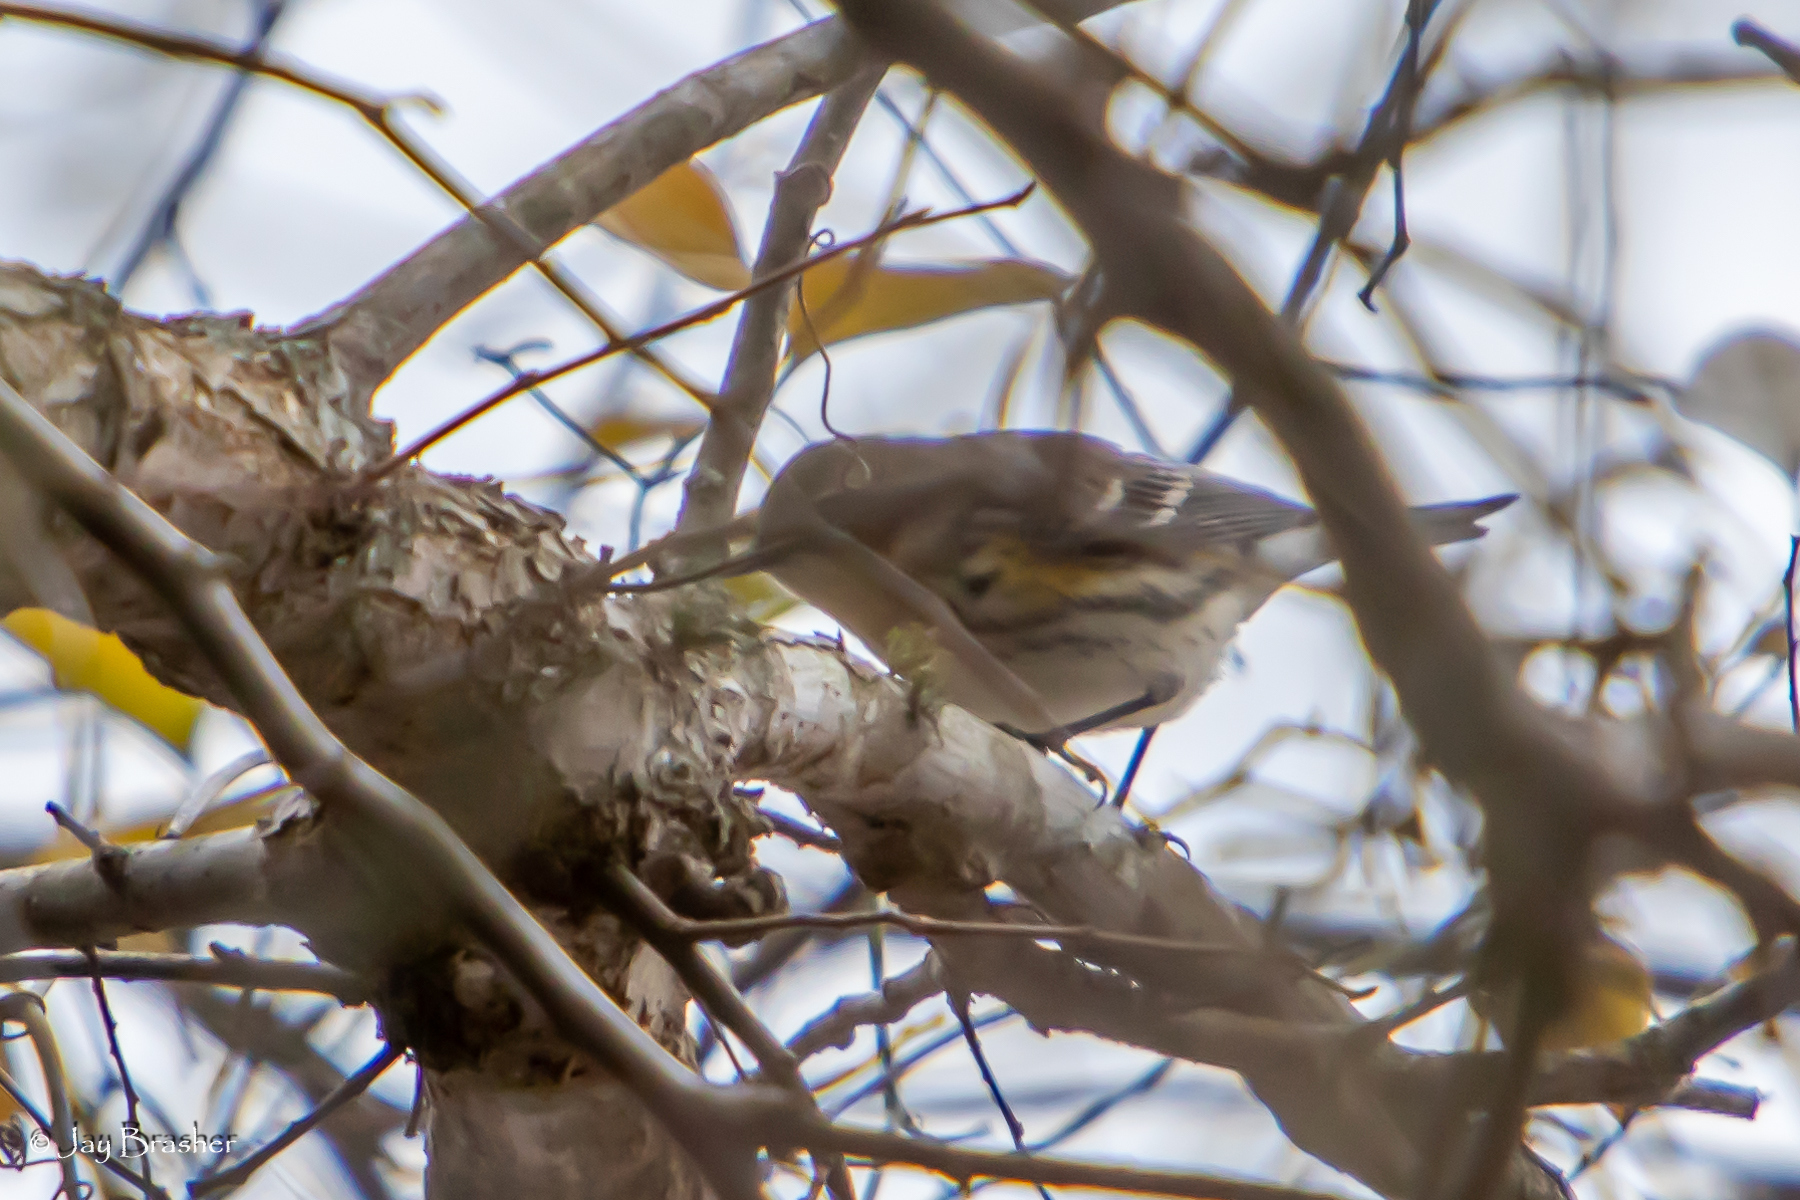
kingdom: Animalia
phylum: Chordata
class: Aves
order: Passeriformes
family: Parulidae
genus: Setophaga
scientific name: Setophaga coronata
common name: Myrtle warbler
